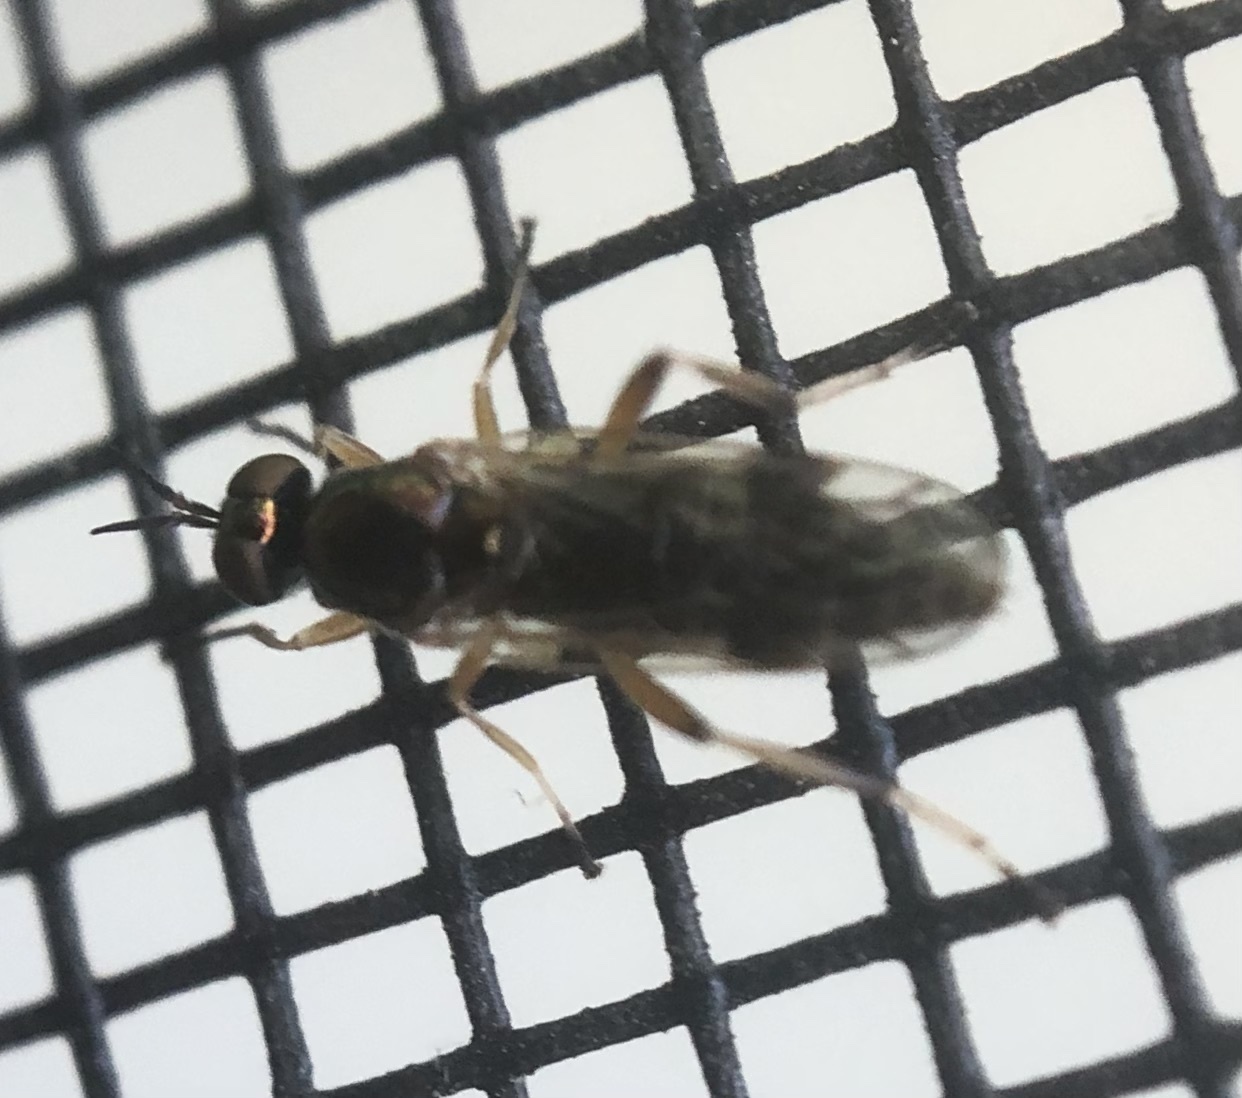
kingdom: Animalia
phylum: Arthropoda
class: Insecta
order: Diptera
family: Stratiomyidae
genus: Actina
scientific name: Actina viridis
